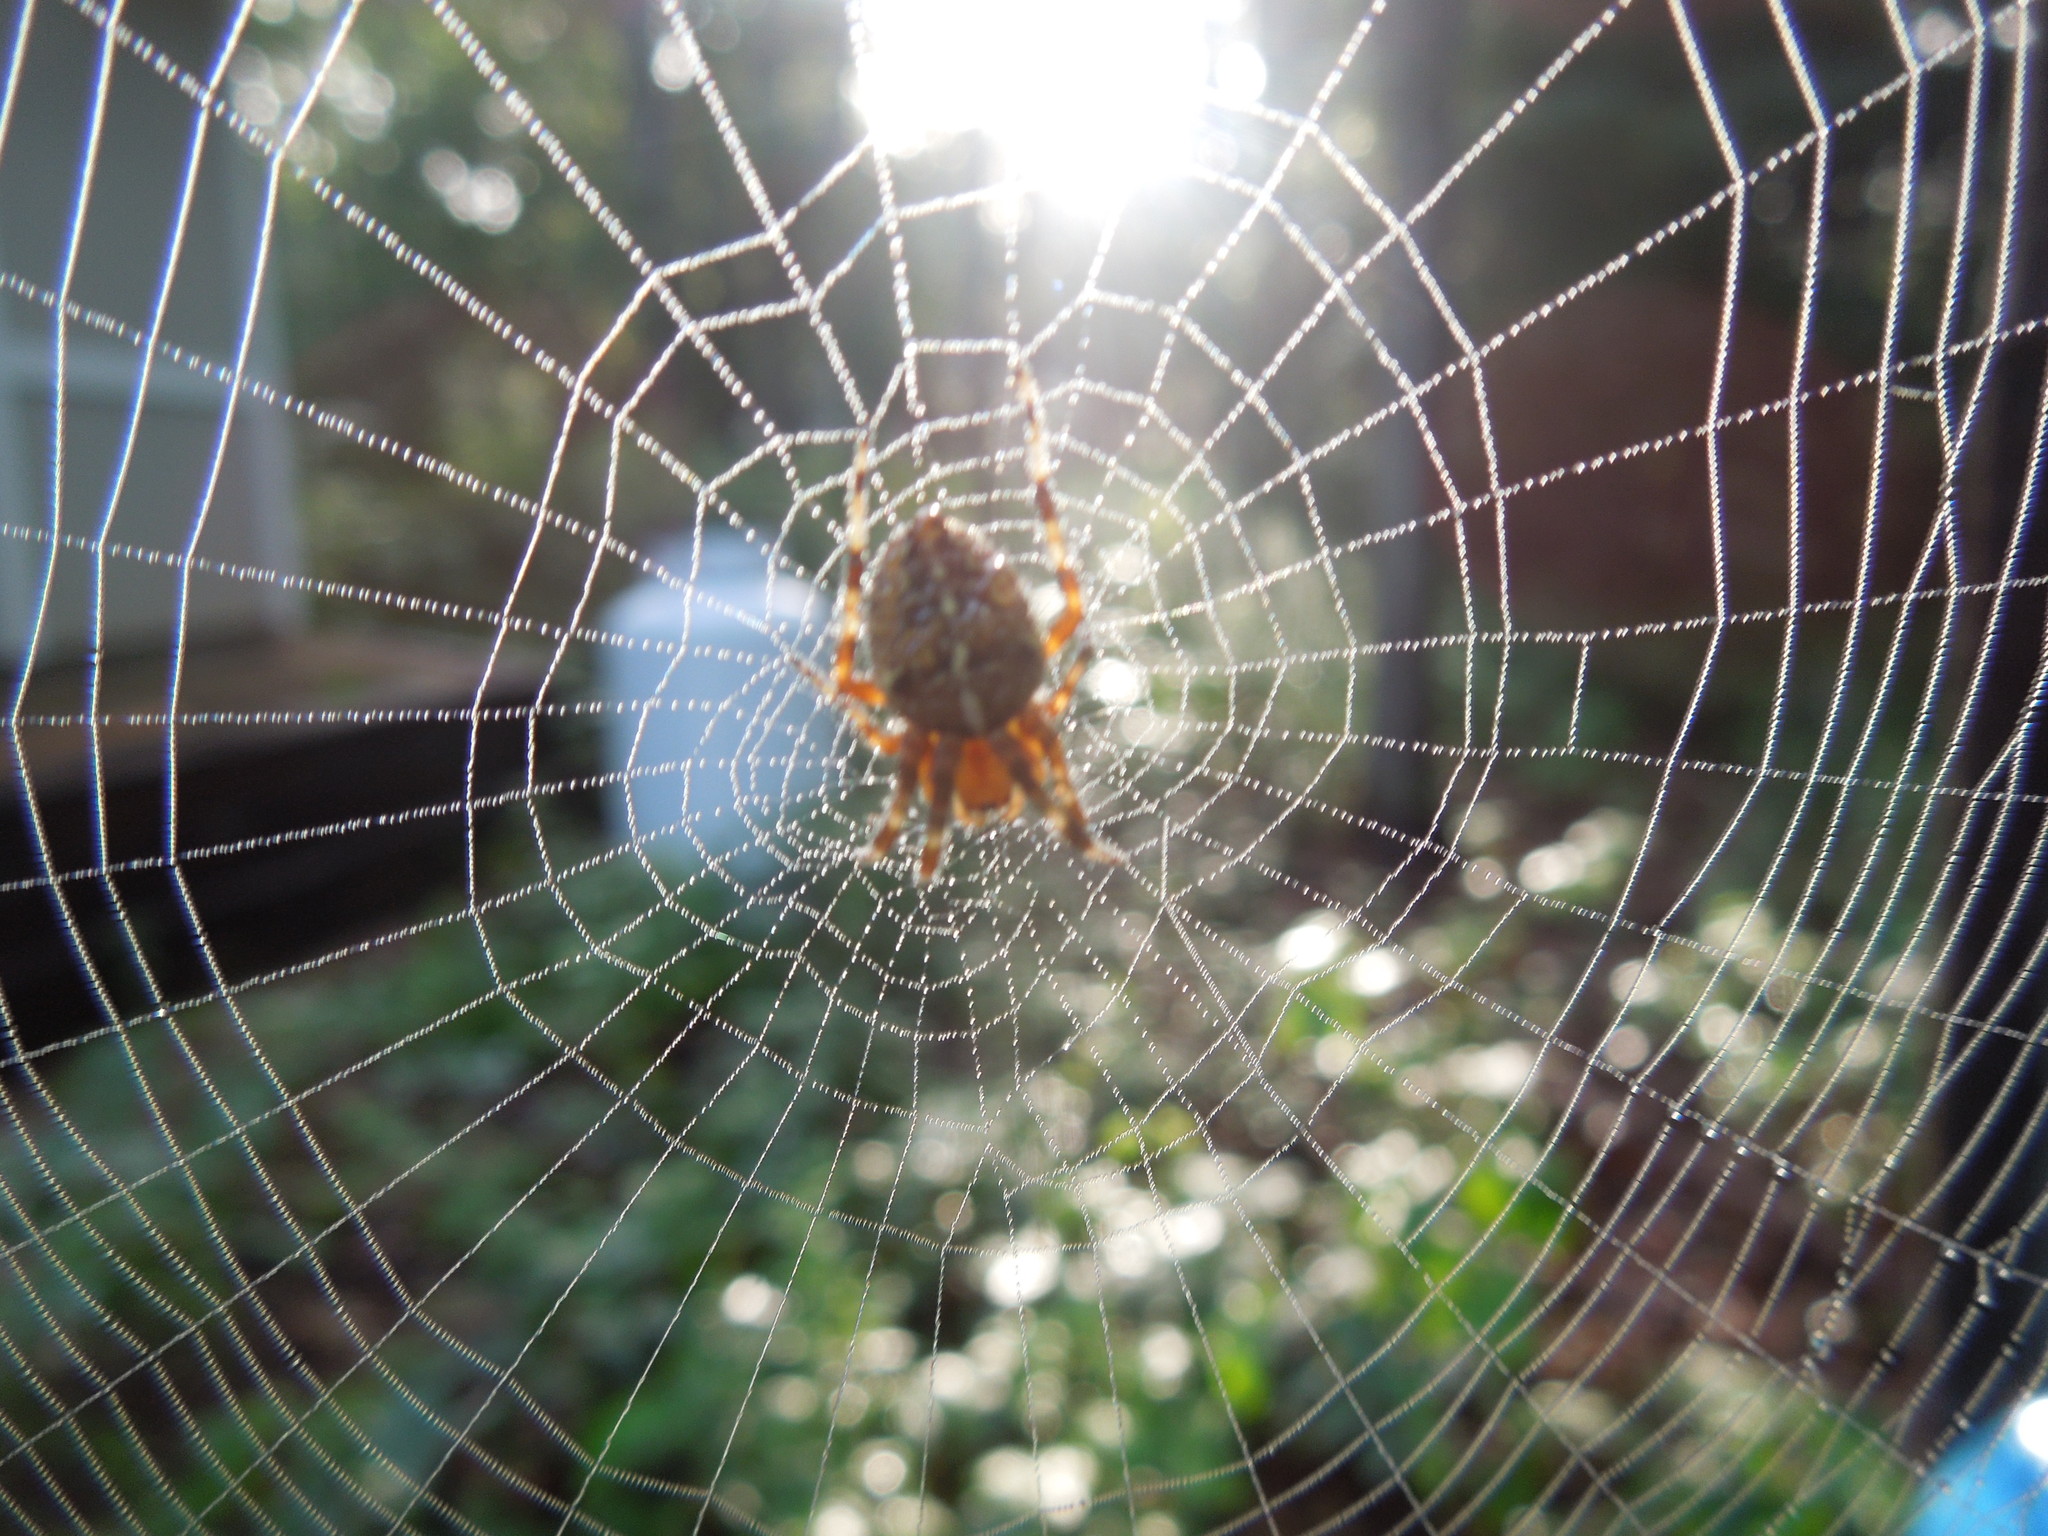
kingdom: Animalia
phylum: Arthropoda
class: Arachnida
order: Araneae
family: Araneidae
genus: Araneus
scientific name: Araneus diadematus
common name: Cross orbweaver
